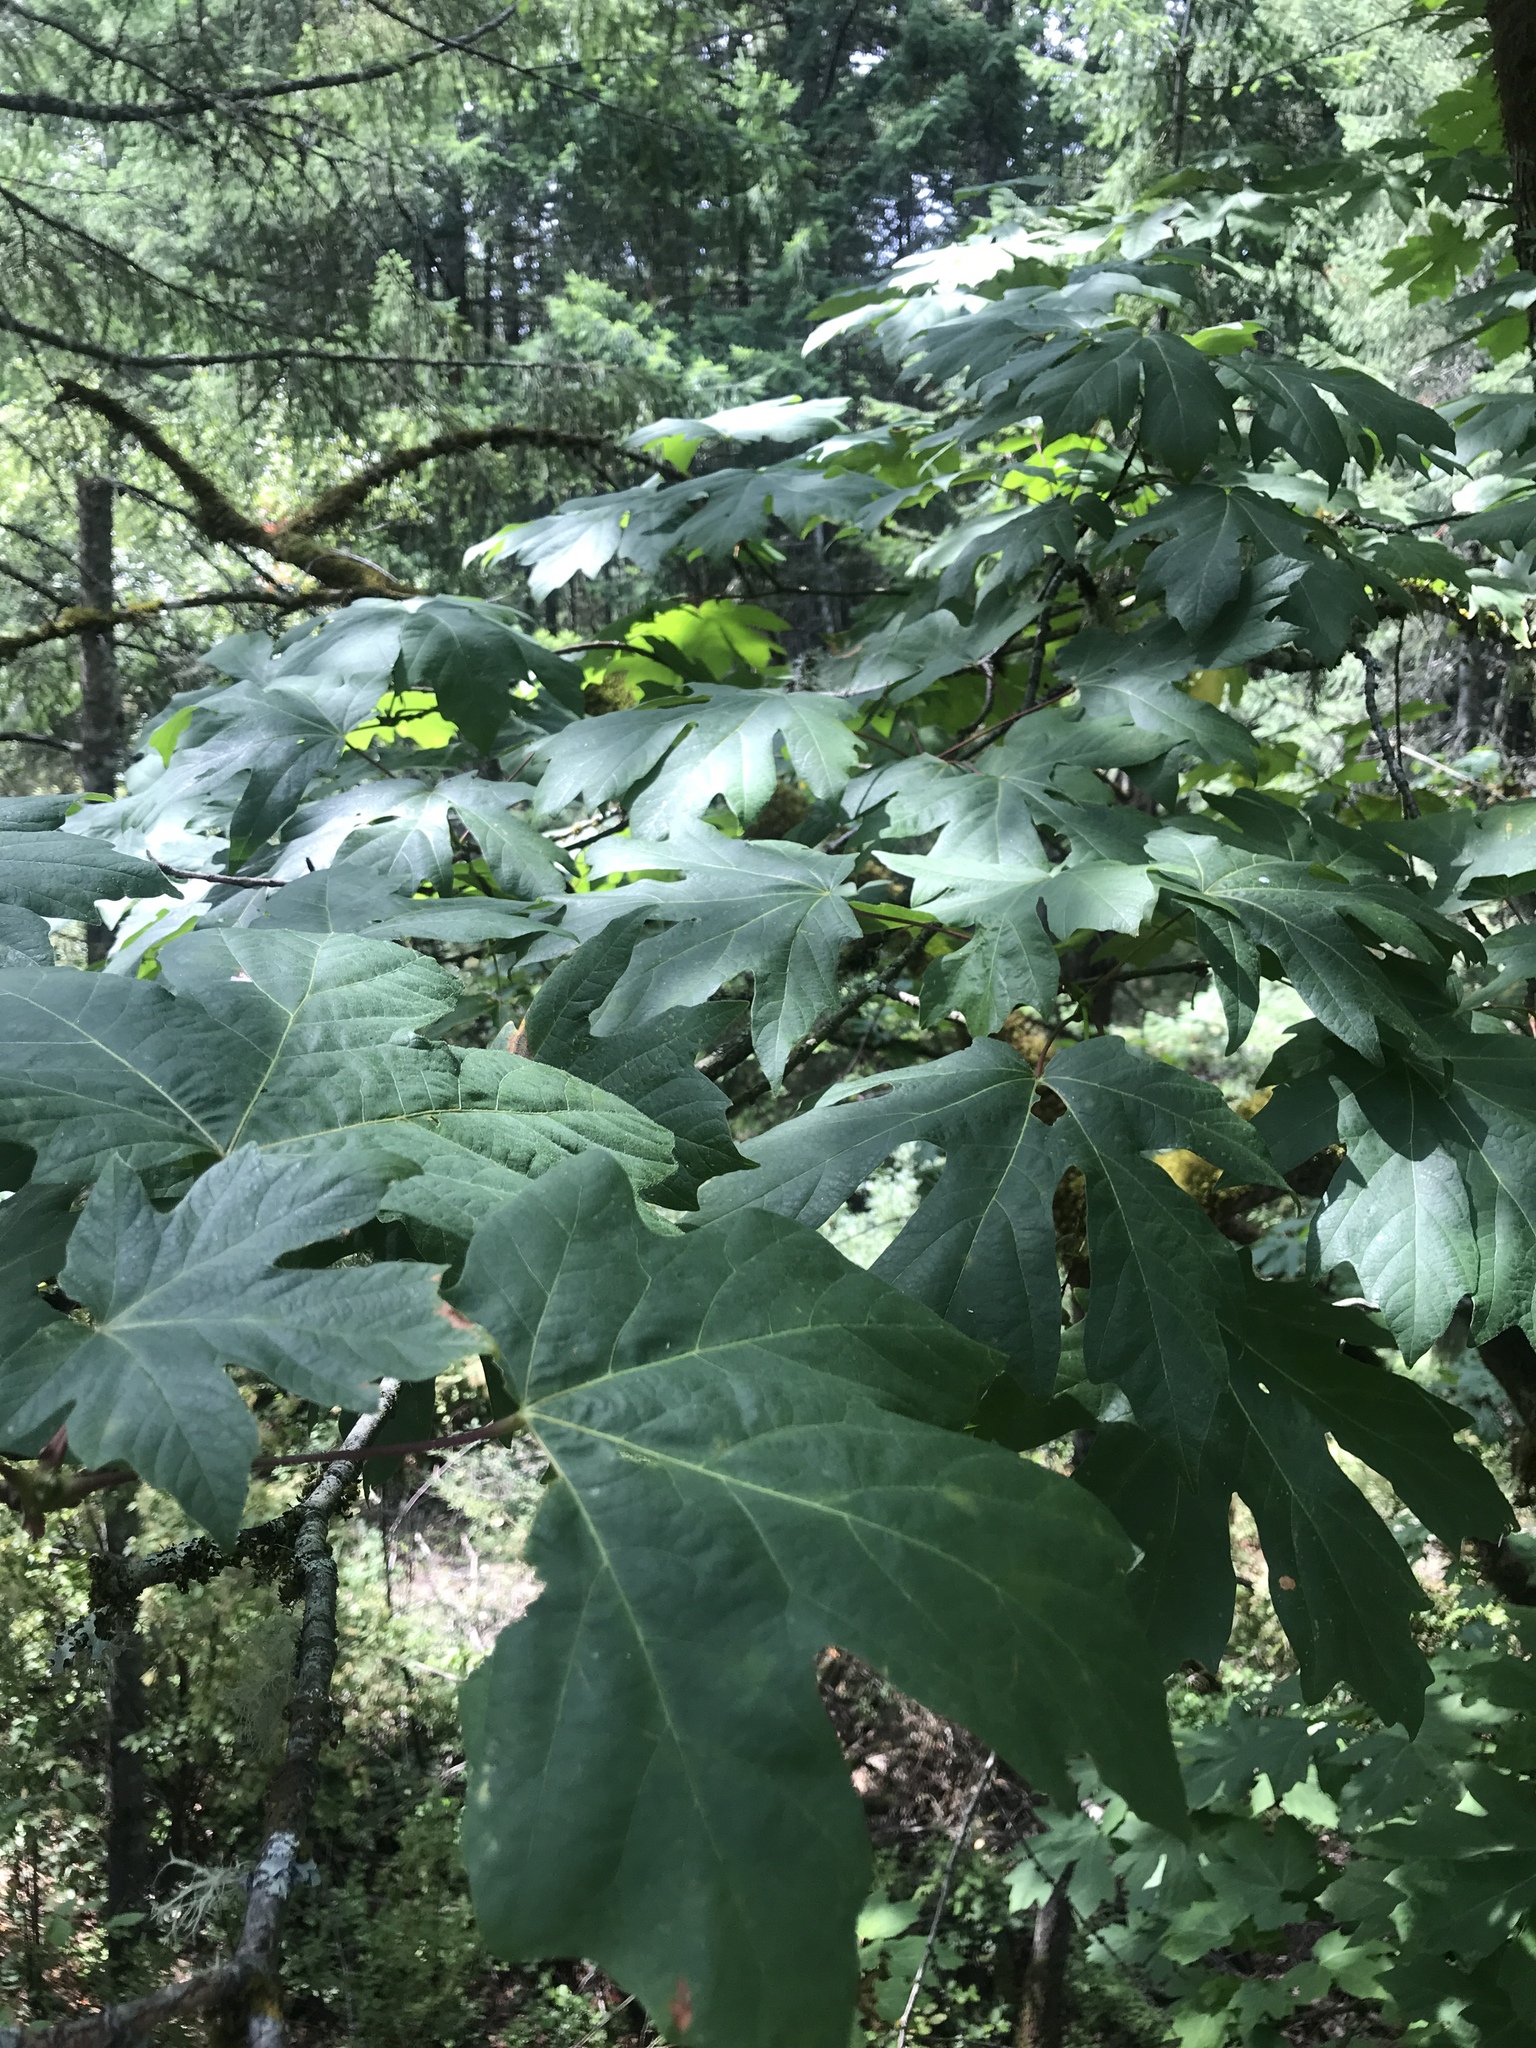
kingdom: Plantae
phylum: Tracheophyta
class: Magnoliopsida
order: Sapindales
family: Sapindaceae
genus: Acer
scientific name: Acer macrophyllum
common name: Oregon maple
